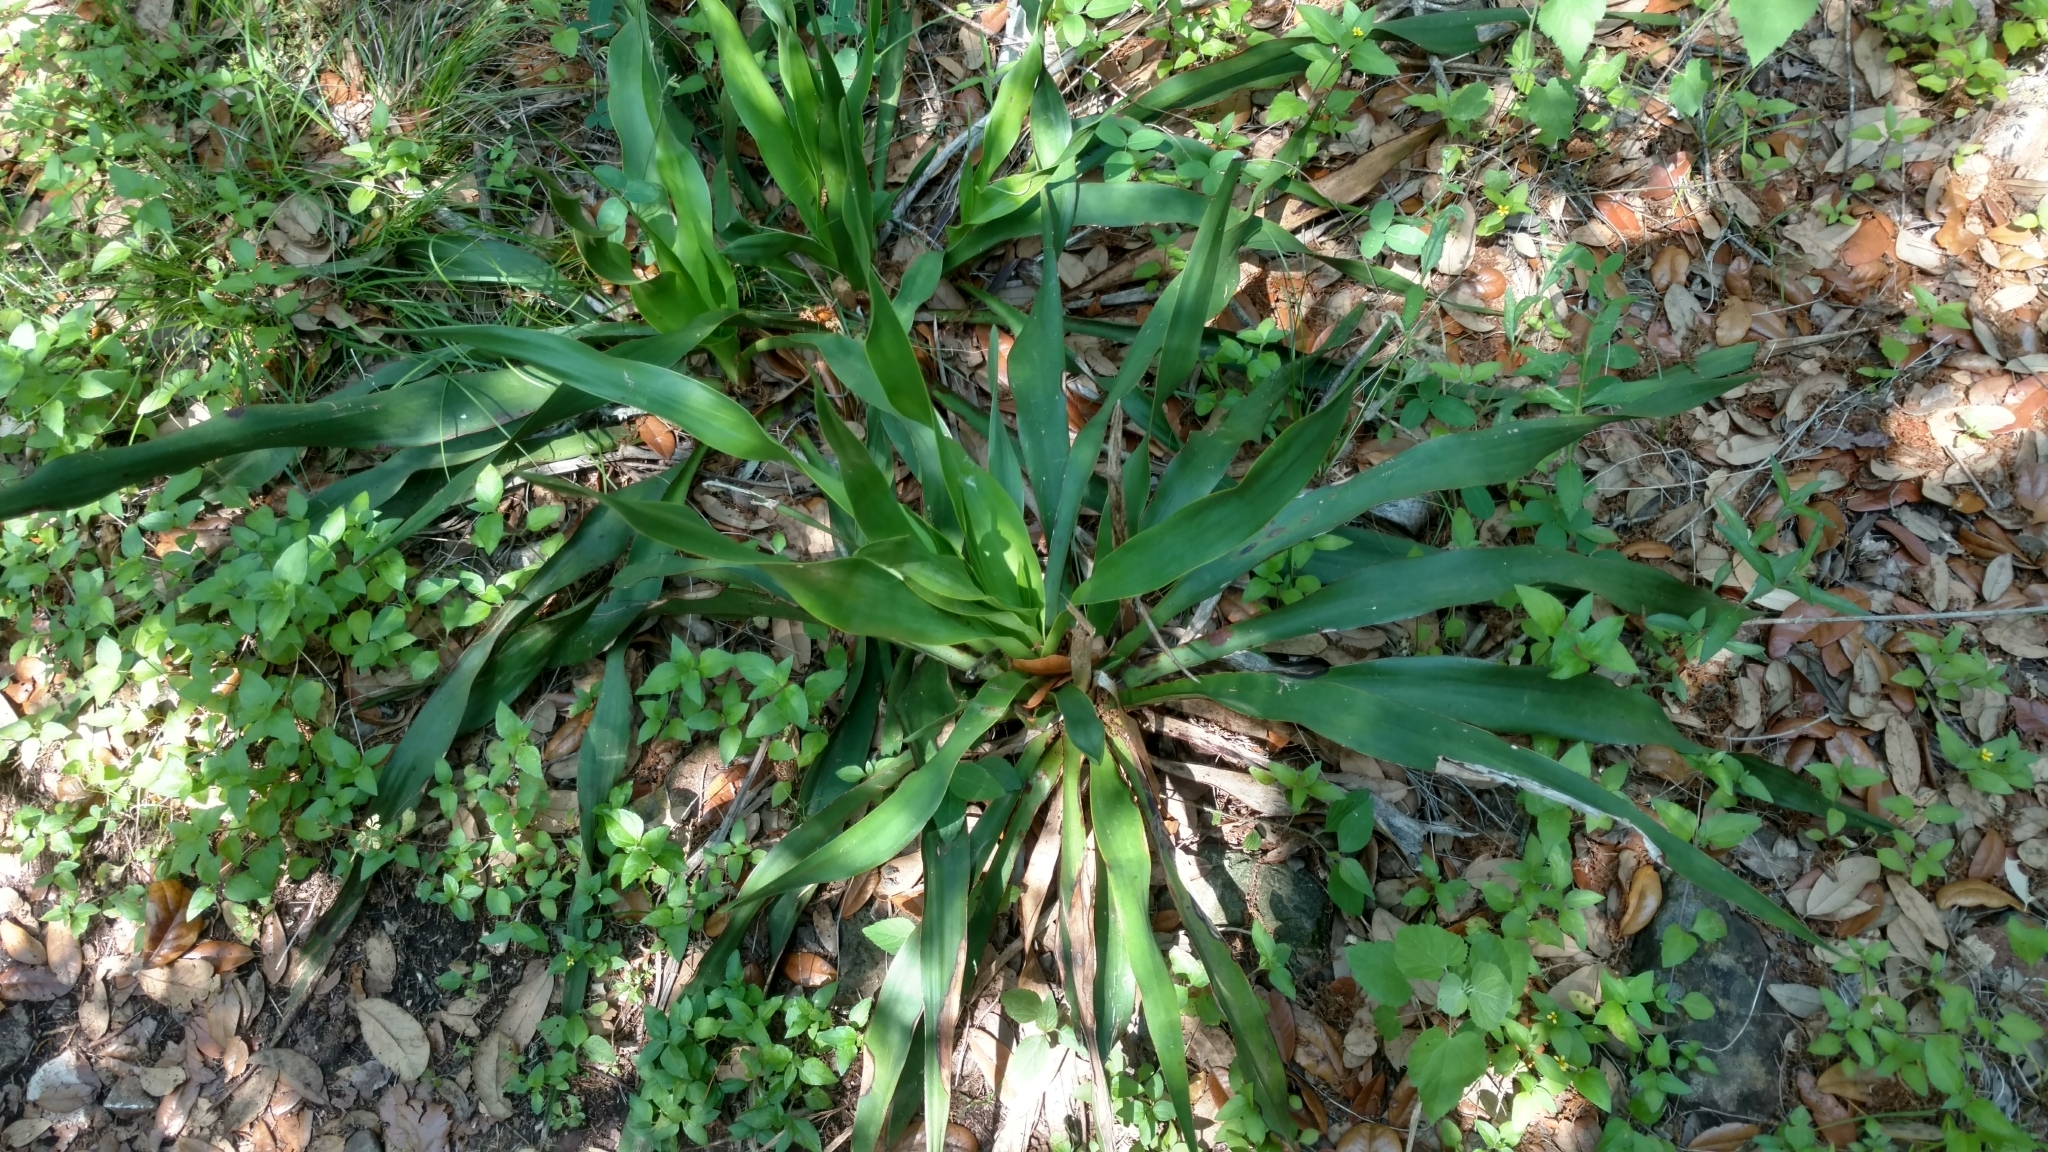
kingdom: Plantae
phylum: Tracheophyta
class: Liliopsida
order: Asparagales
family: Asparagaceae
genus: Yucca
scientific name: Yucca rupicola
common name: Twisted-leaf spanish-dagger
